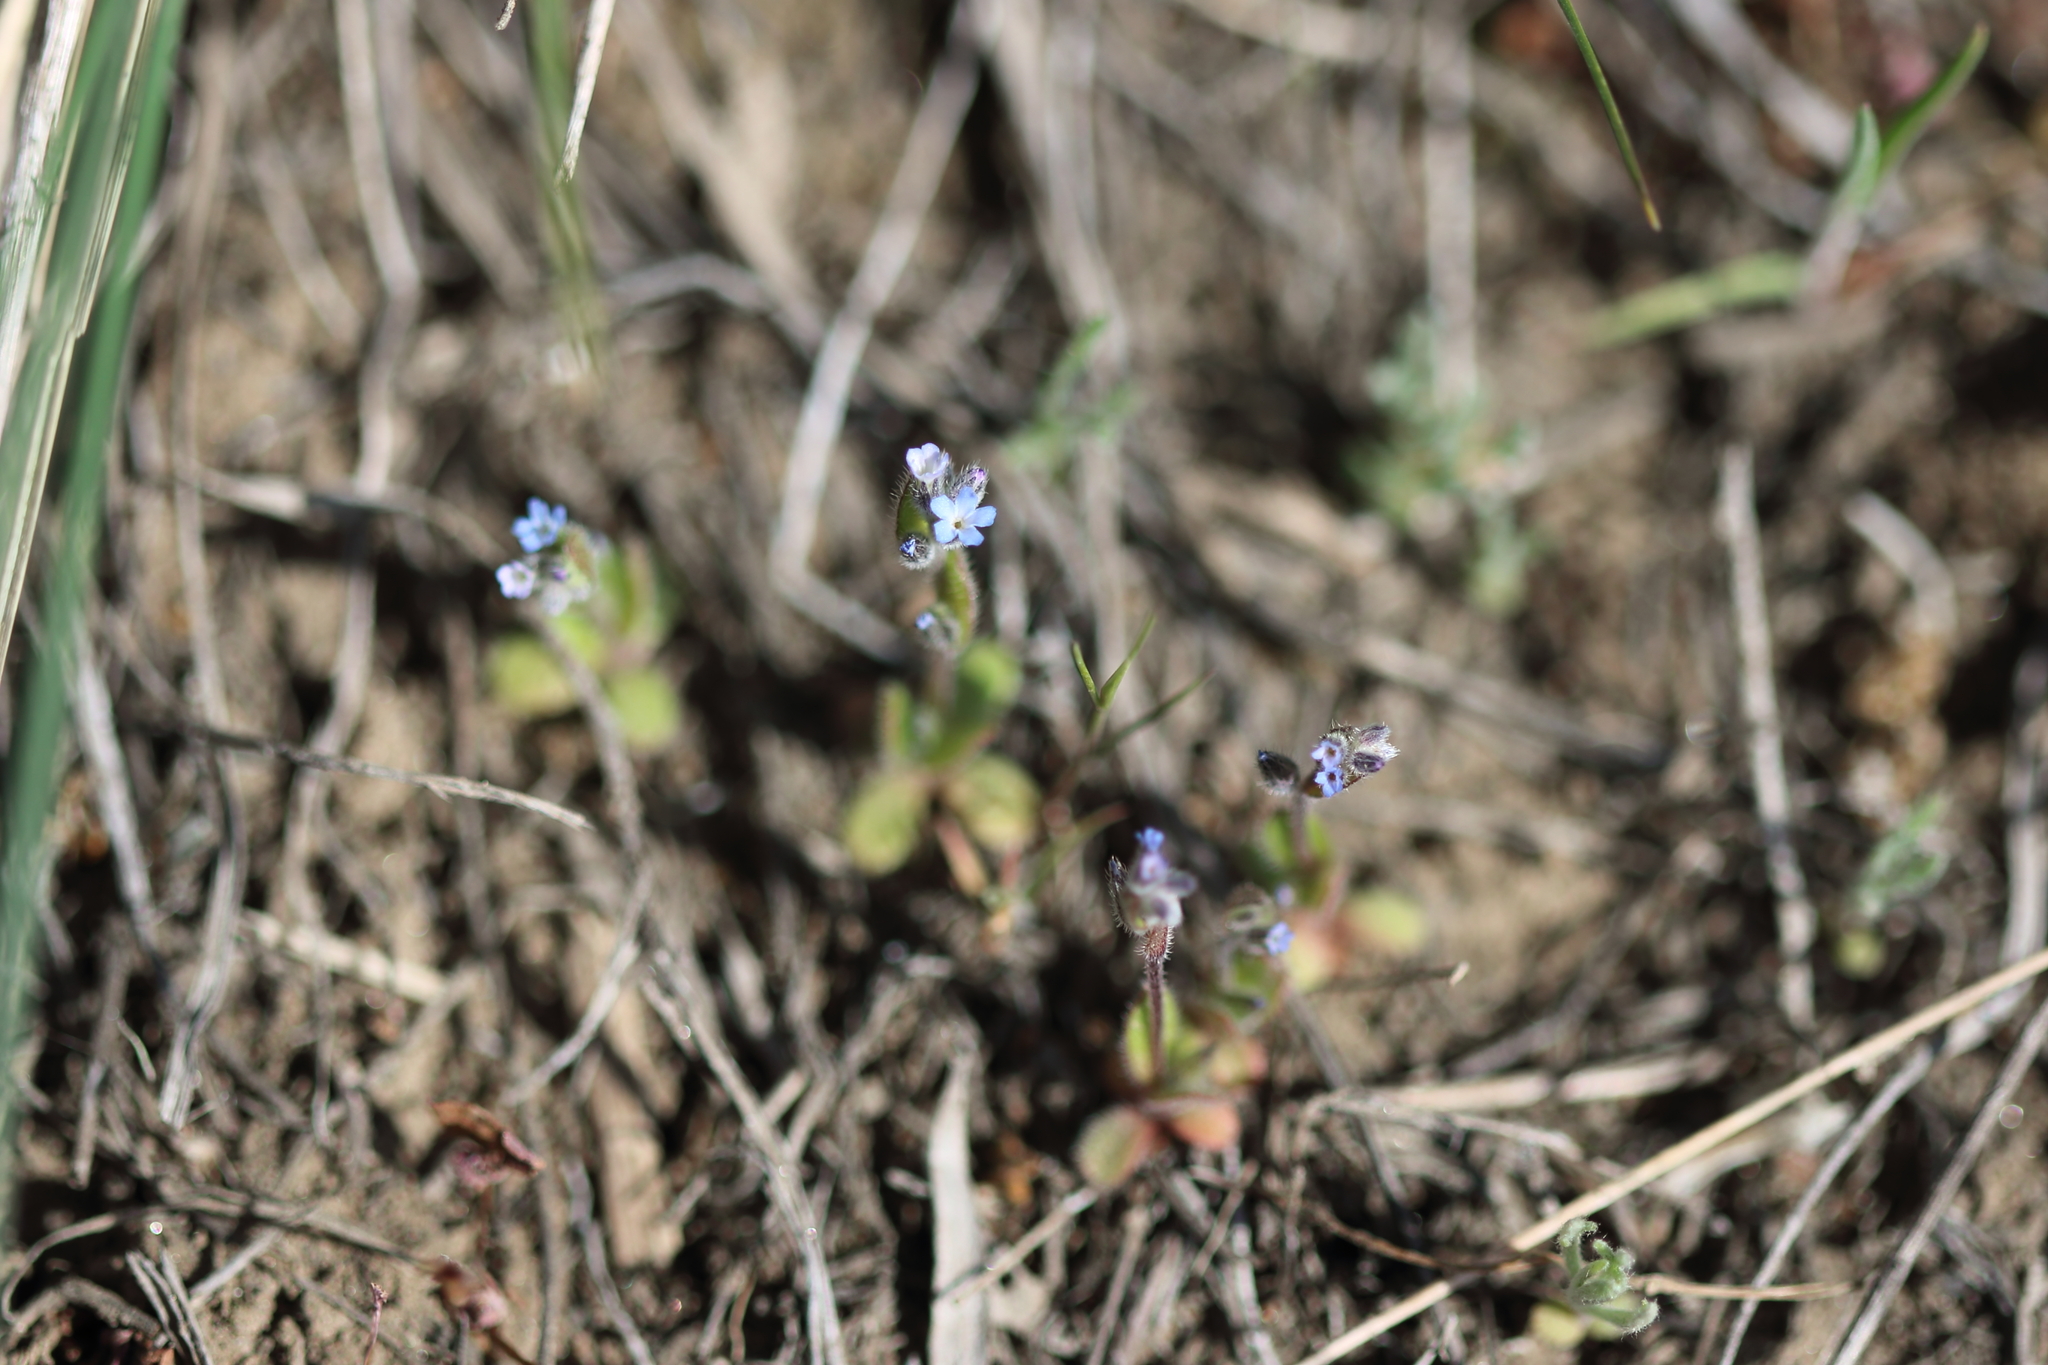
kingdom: Plantae
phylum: Tracheophyta
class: Magnoliopsida
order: Boraginales
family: Boraginaceae
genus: Myosotis
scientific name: Myosotis stricta
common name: Strict forget-me-not
